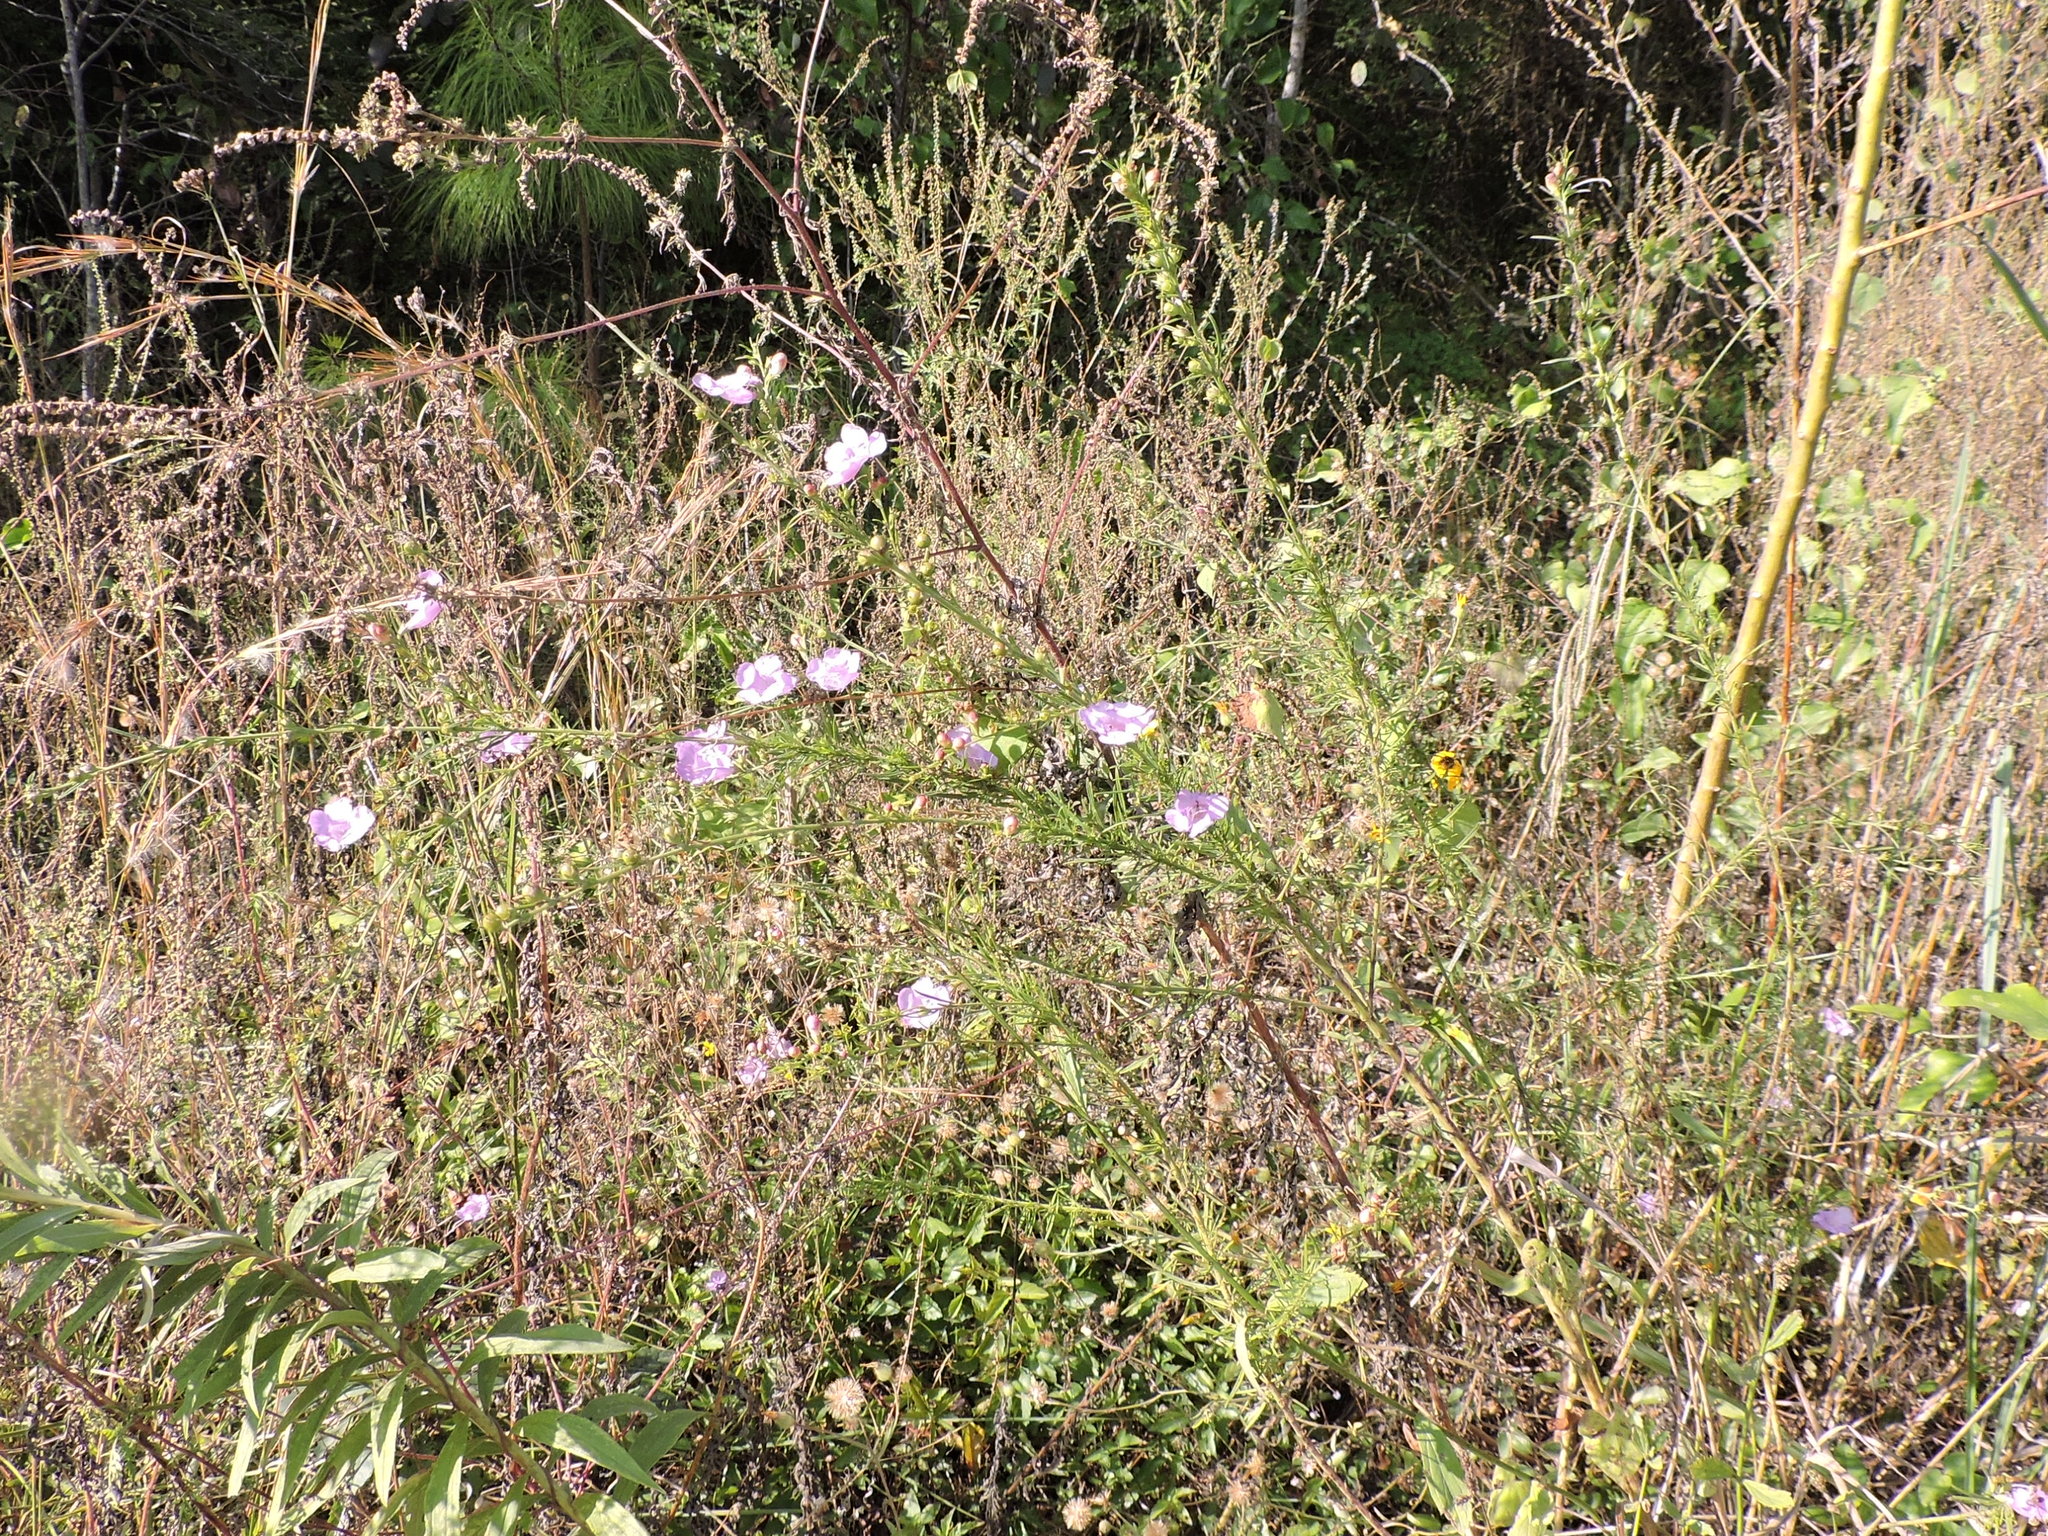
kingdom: Plantae
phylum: Tracheophyta
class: Magnoliopsida
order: Lamiales
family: Orobanchaceae
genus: Agalinis
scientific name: Agalinis fasciculata
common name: Beach false foxglove
